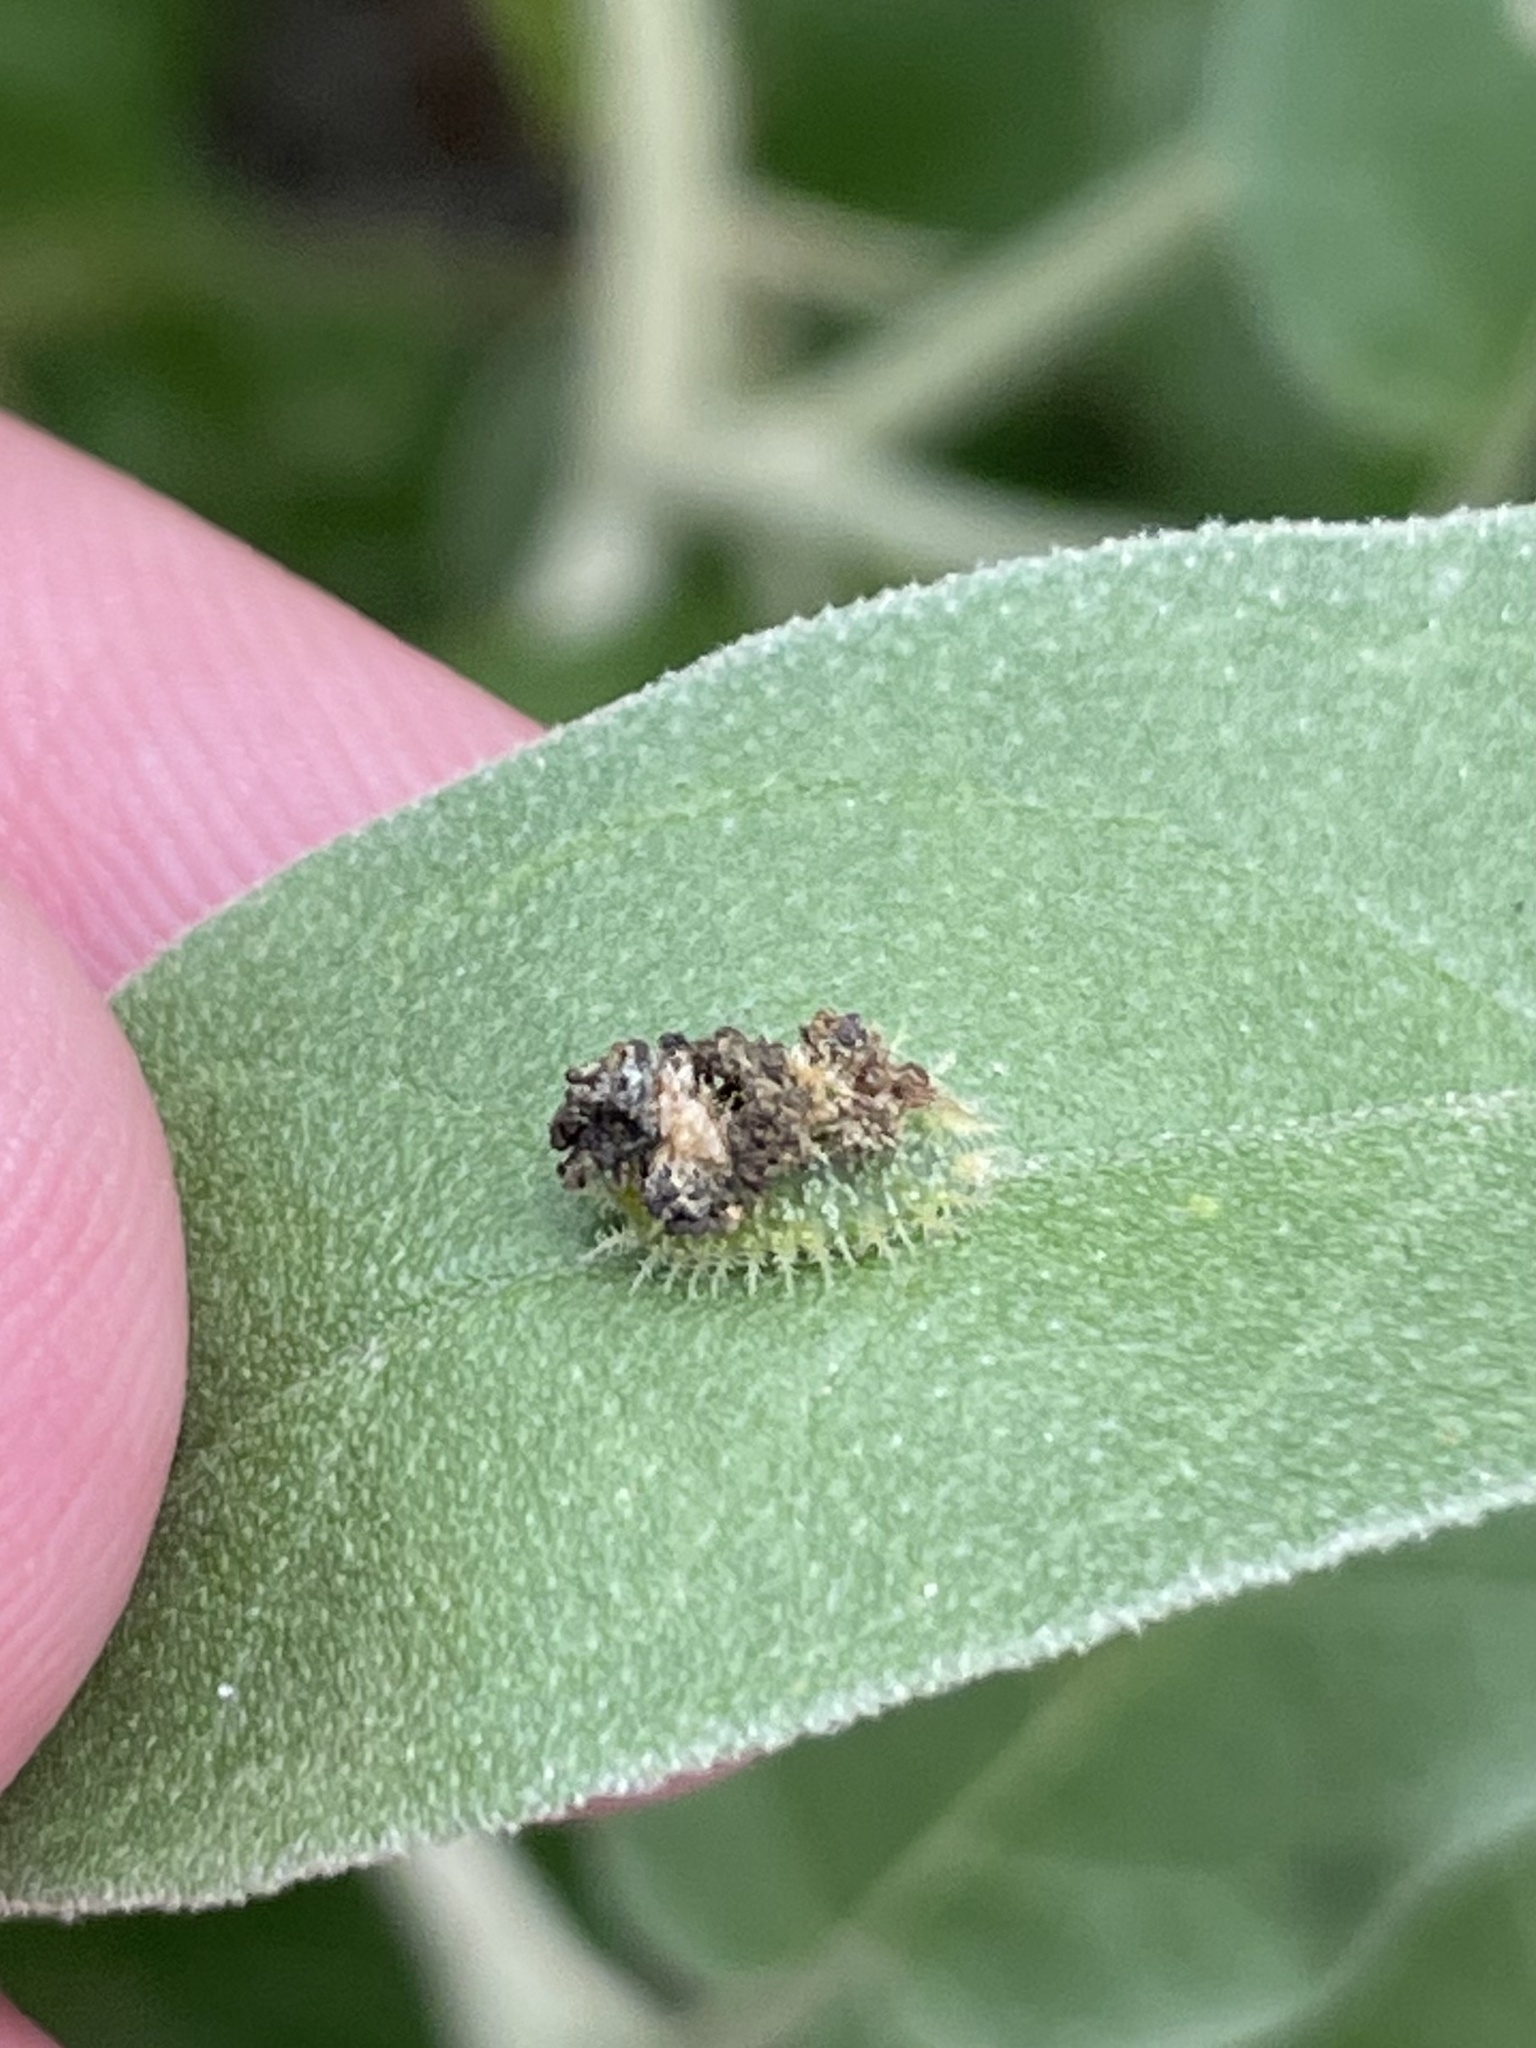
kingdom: Animalia
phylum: Arthropoda
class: Insecta
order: Coleoptera
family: Chrysomelidae
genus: Gratiana
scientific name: Gratiana pallidula
